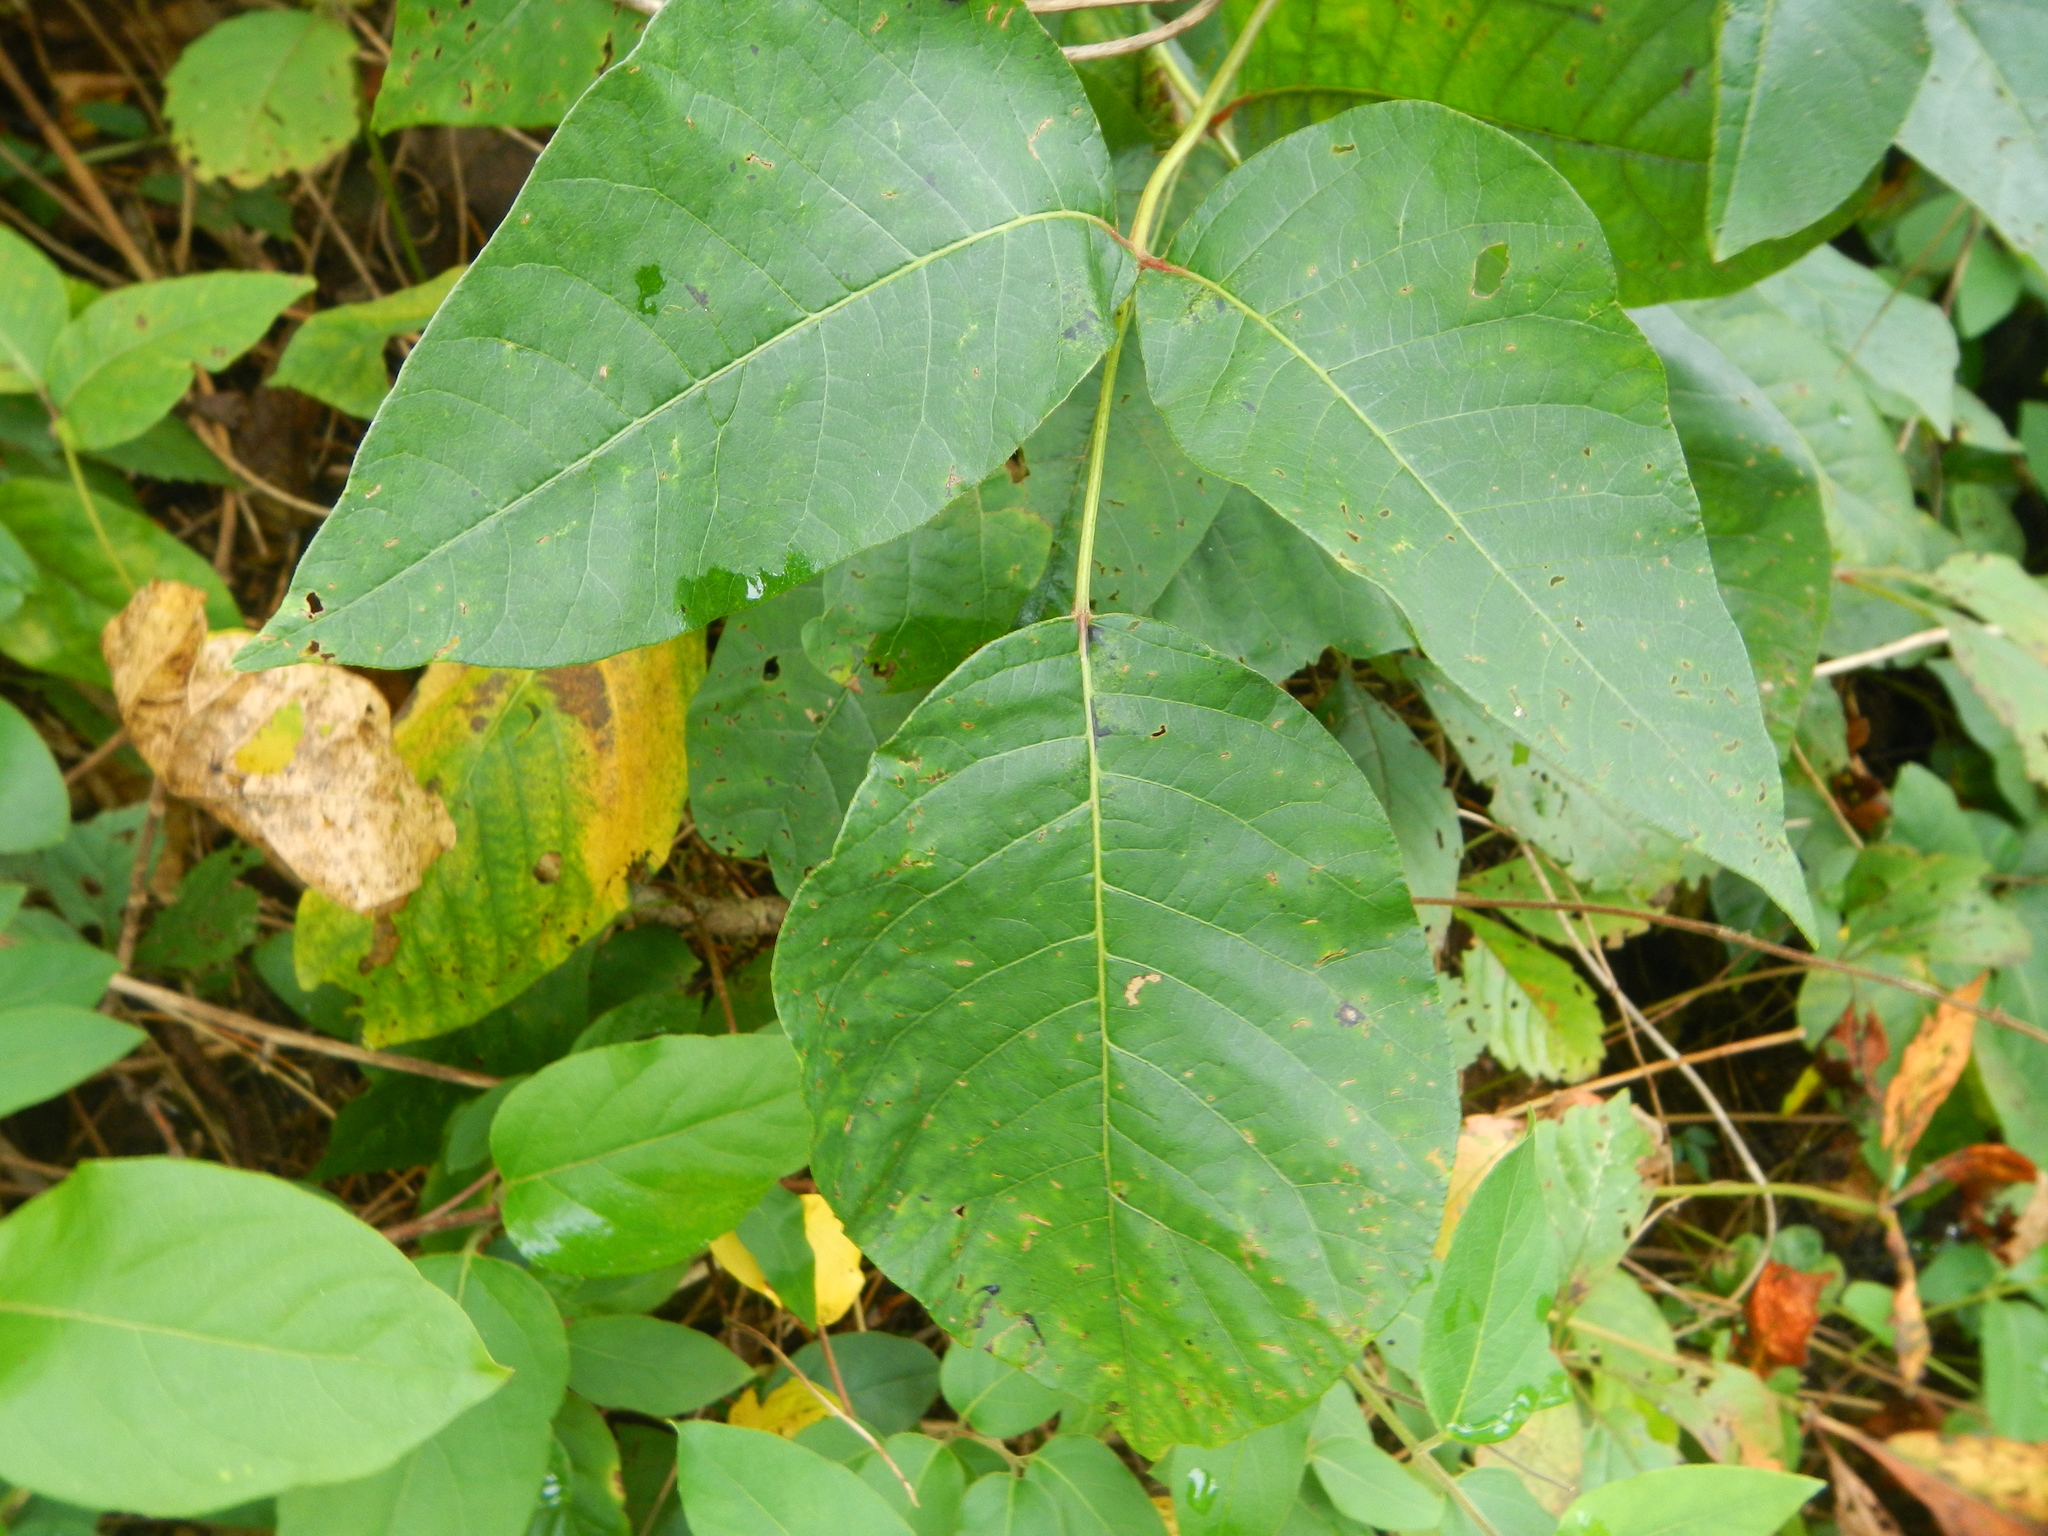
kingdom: Plantae
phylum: Tracheophyta
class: Magnoliopsida
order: Sapindales
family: Anacardiaceae
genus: Toxicodendron
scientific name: Toxicodendron radicans
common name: Poison ivy
